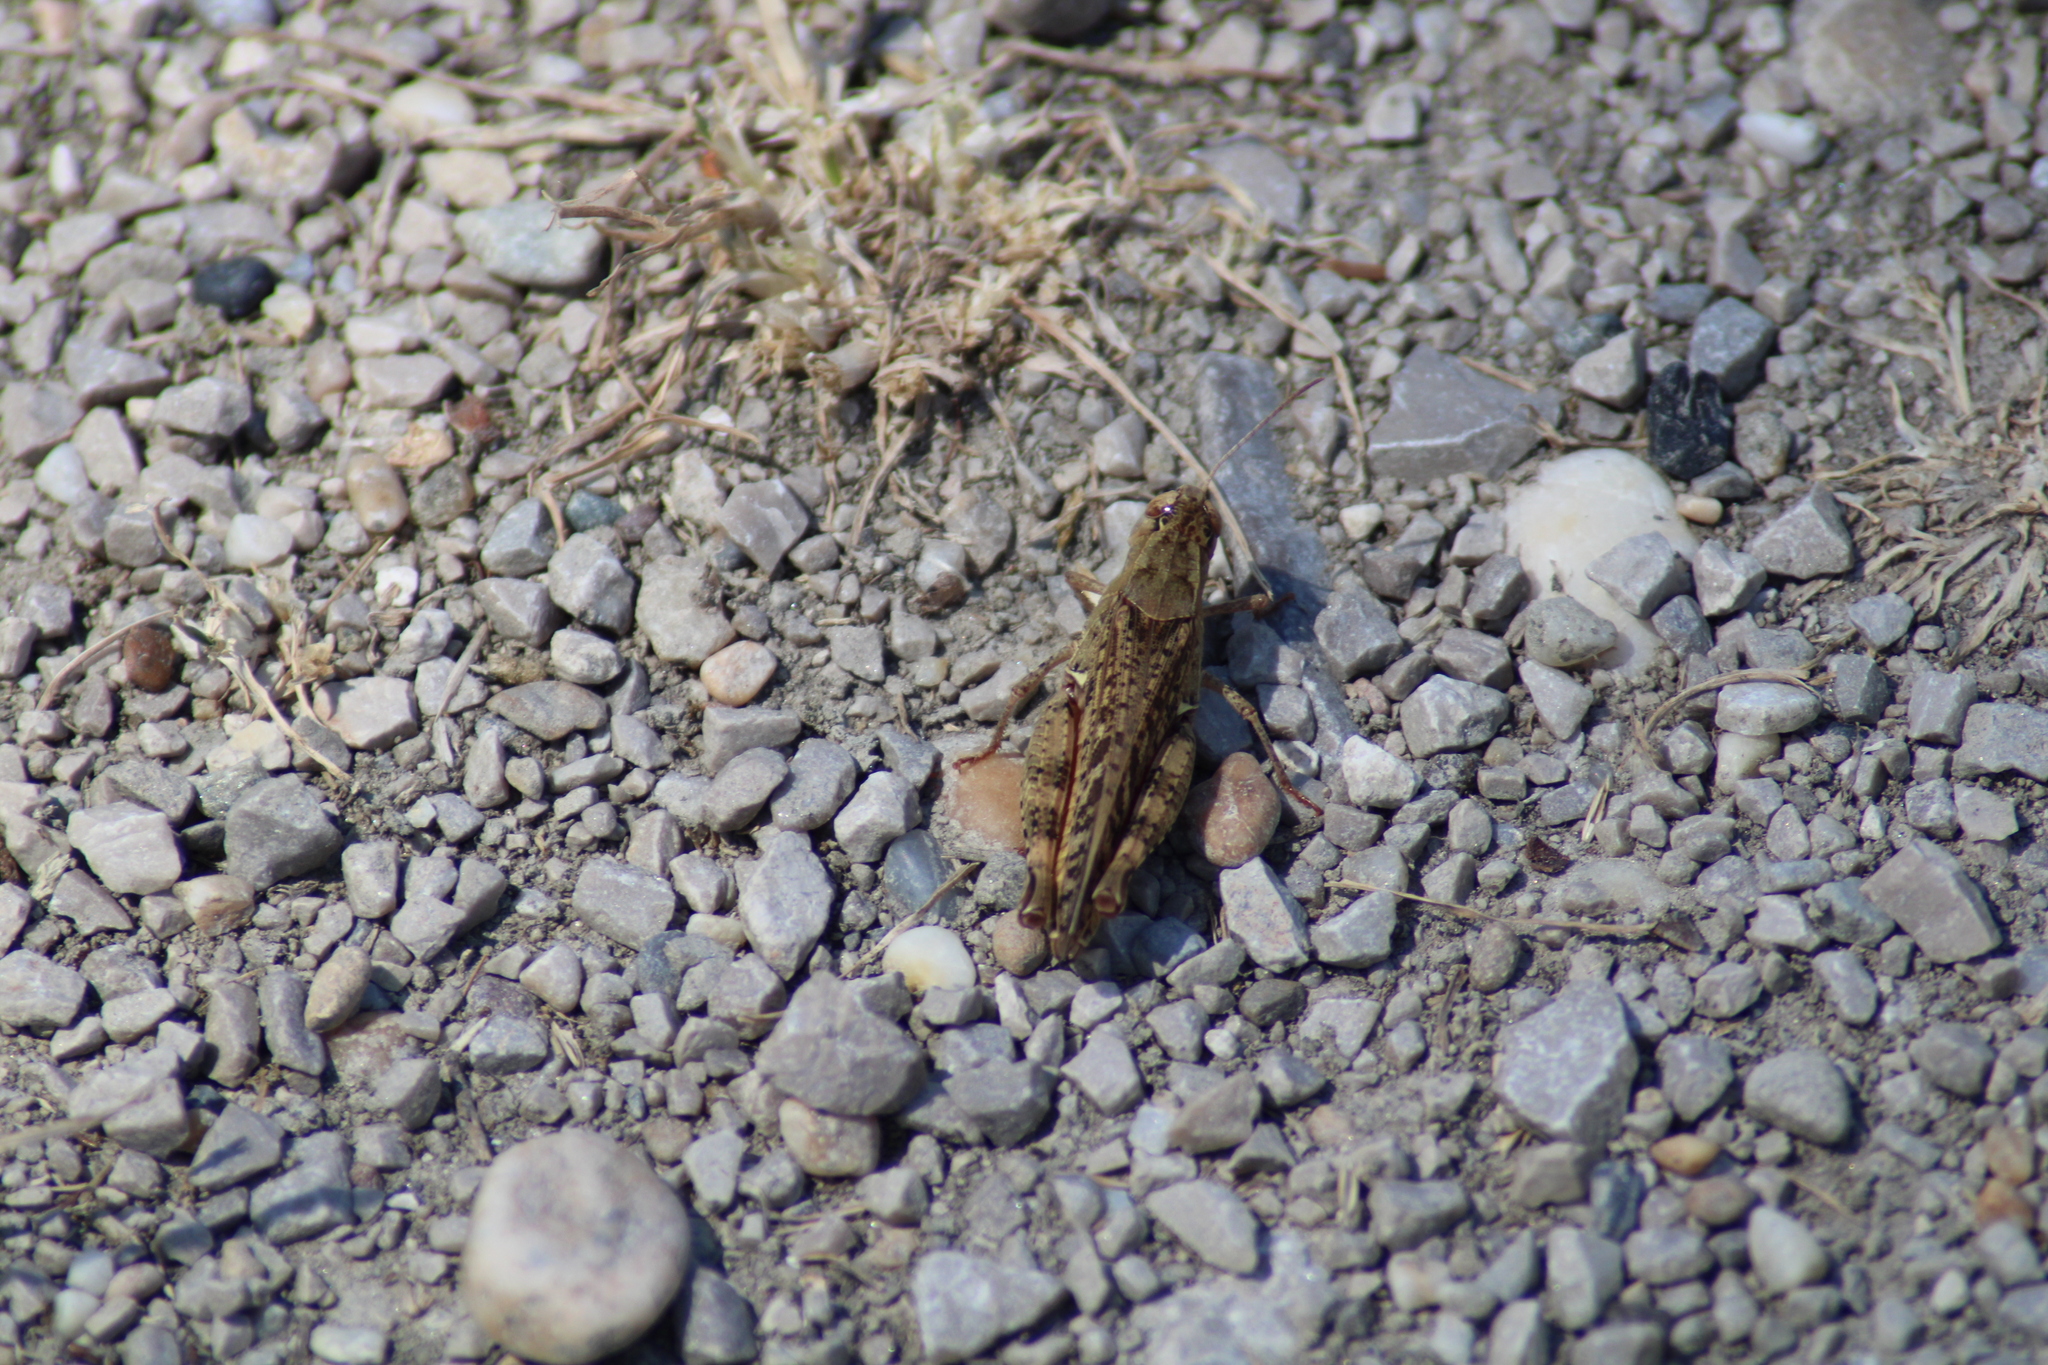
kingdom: Animalia
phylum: Arthropoda
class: Insecta
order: Orthoptera
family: Acrididae
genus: Calliptamus
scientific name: Calliptamus italicus
